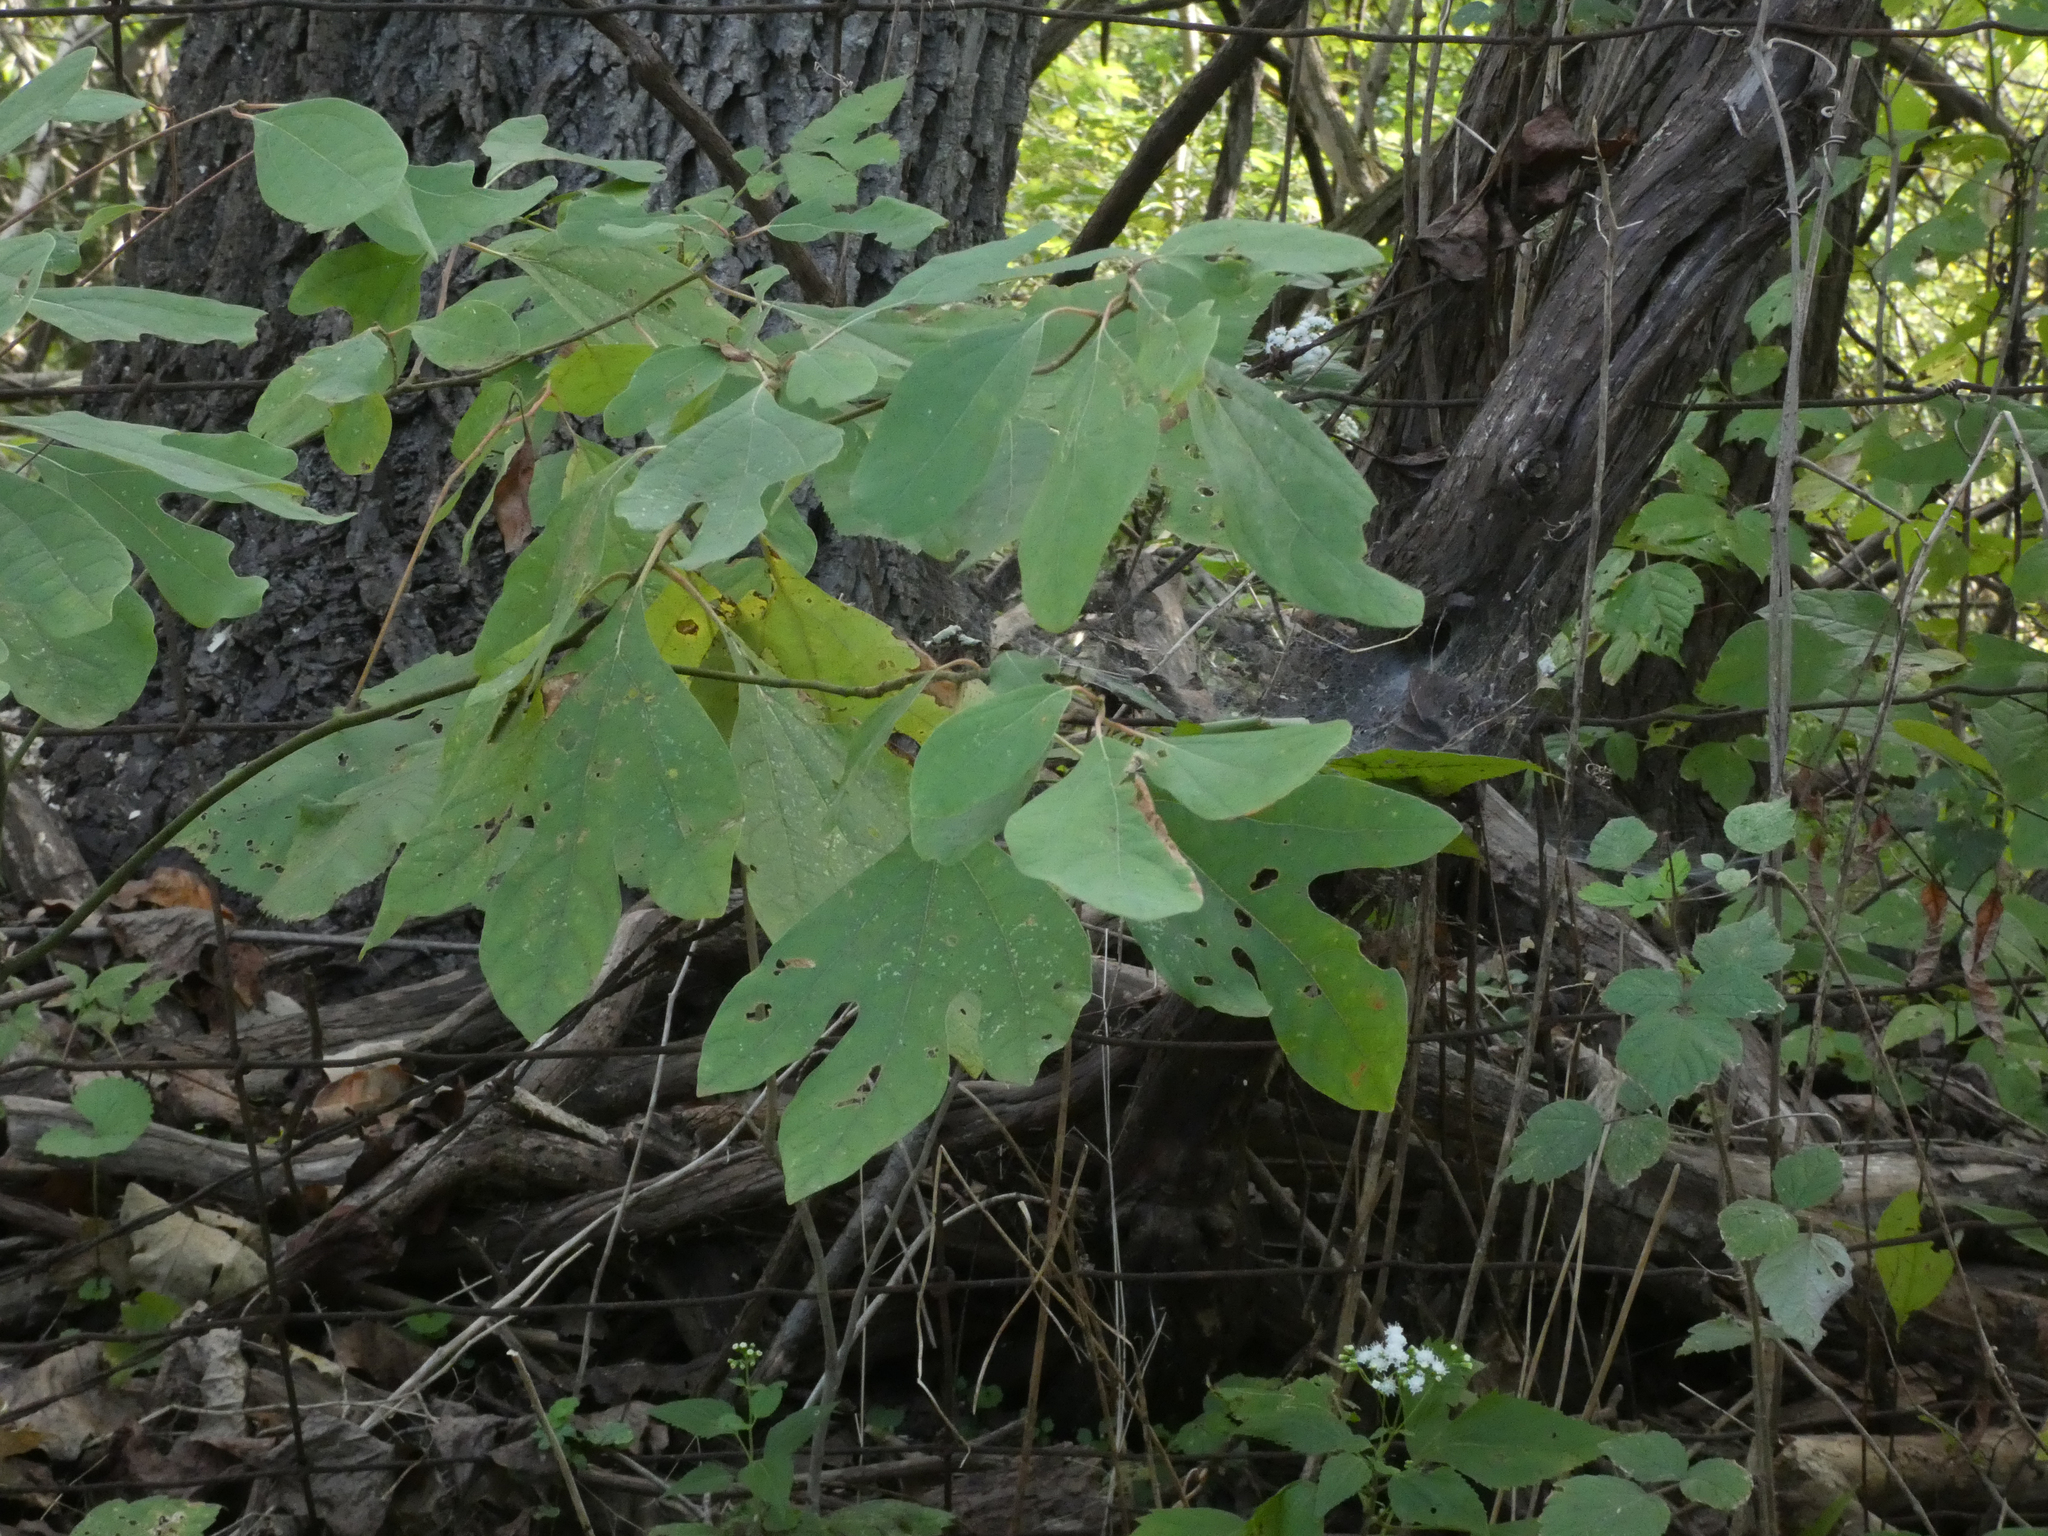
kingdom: Plantae
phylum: Tracheophyta
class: Magnoliopsida
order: Laurales
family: Lauraceae
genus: Sassafras
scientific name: Sassafras albidum
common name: Sassafras
